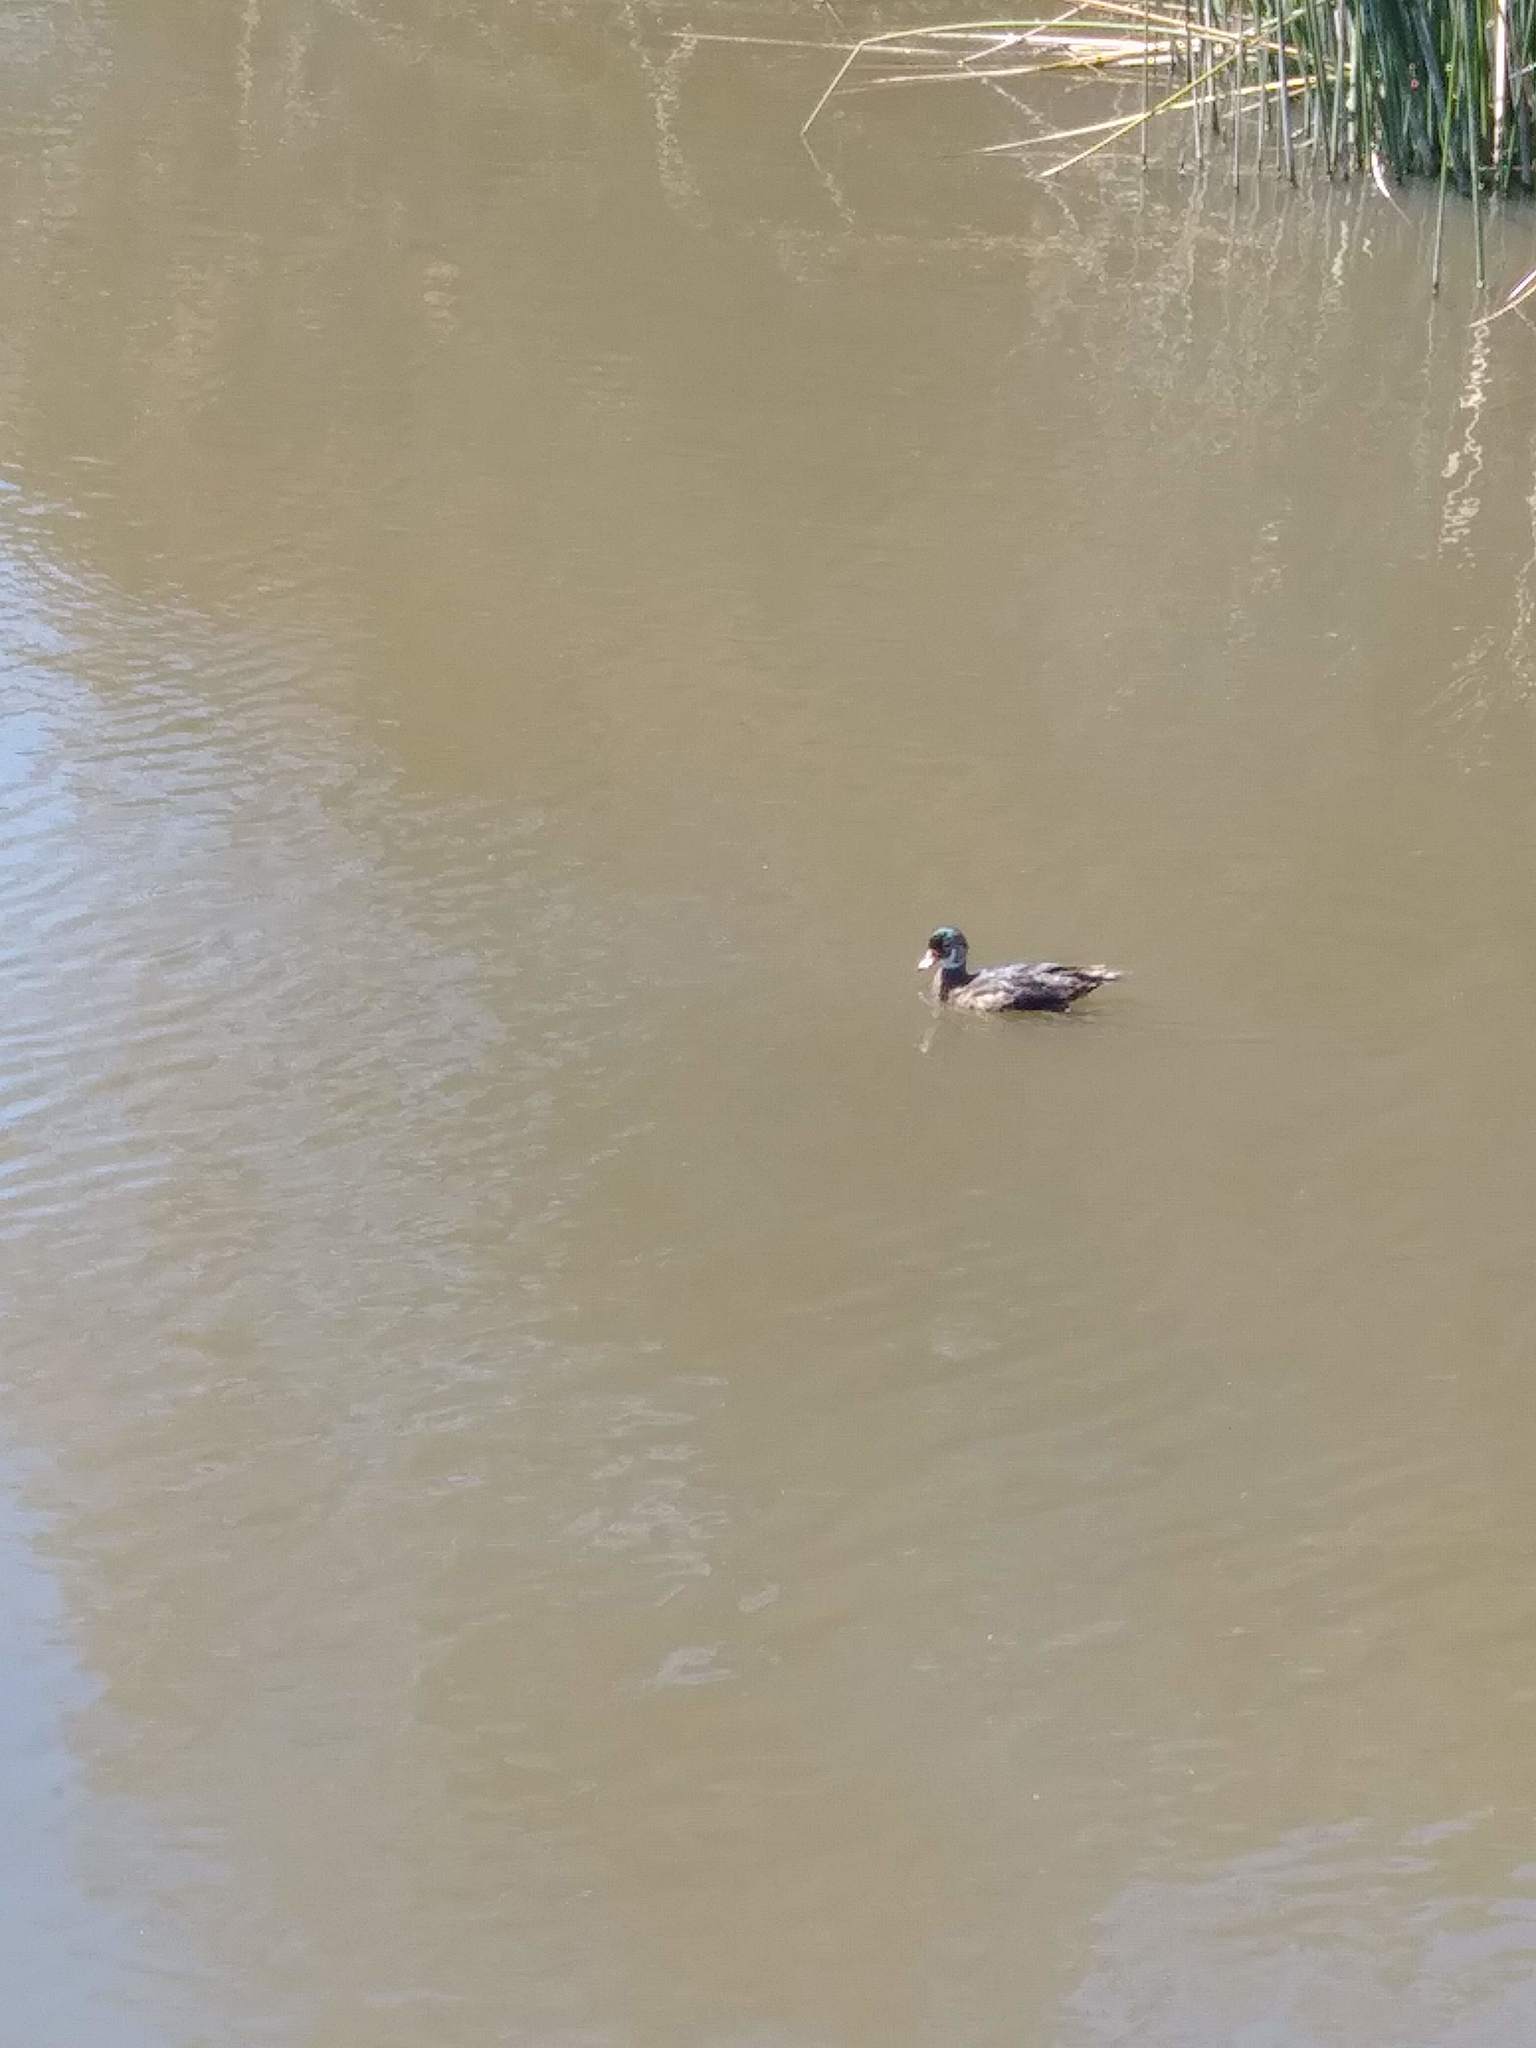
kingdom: Animalia
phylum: Chordata
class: Aves
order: Anseriformes
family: Anatidae
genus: Aix
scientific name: Aix sponsa
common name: Wood duck
